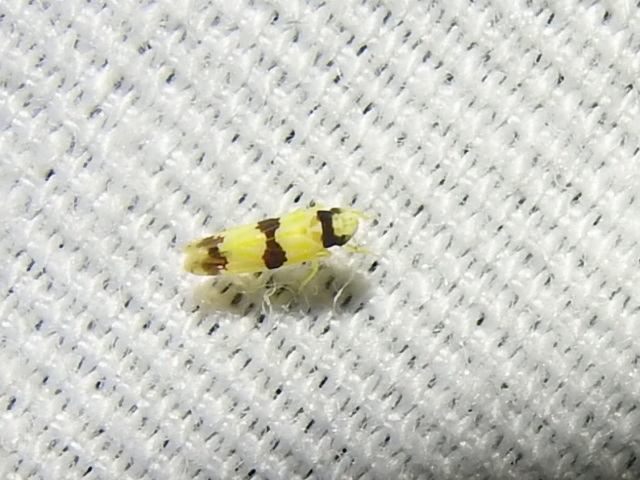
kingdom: Animalia
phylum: Arthropoda
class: Insecta
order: Hemiptera
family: Cicadellidae
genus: Erythroneura
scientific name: Erythroneura calycula
